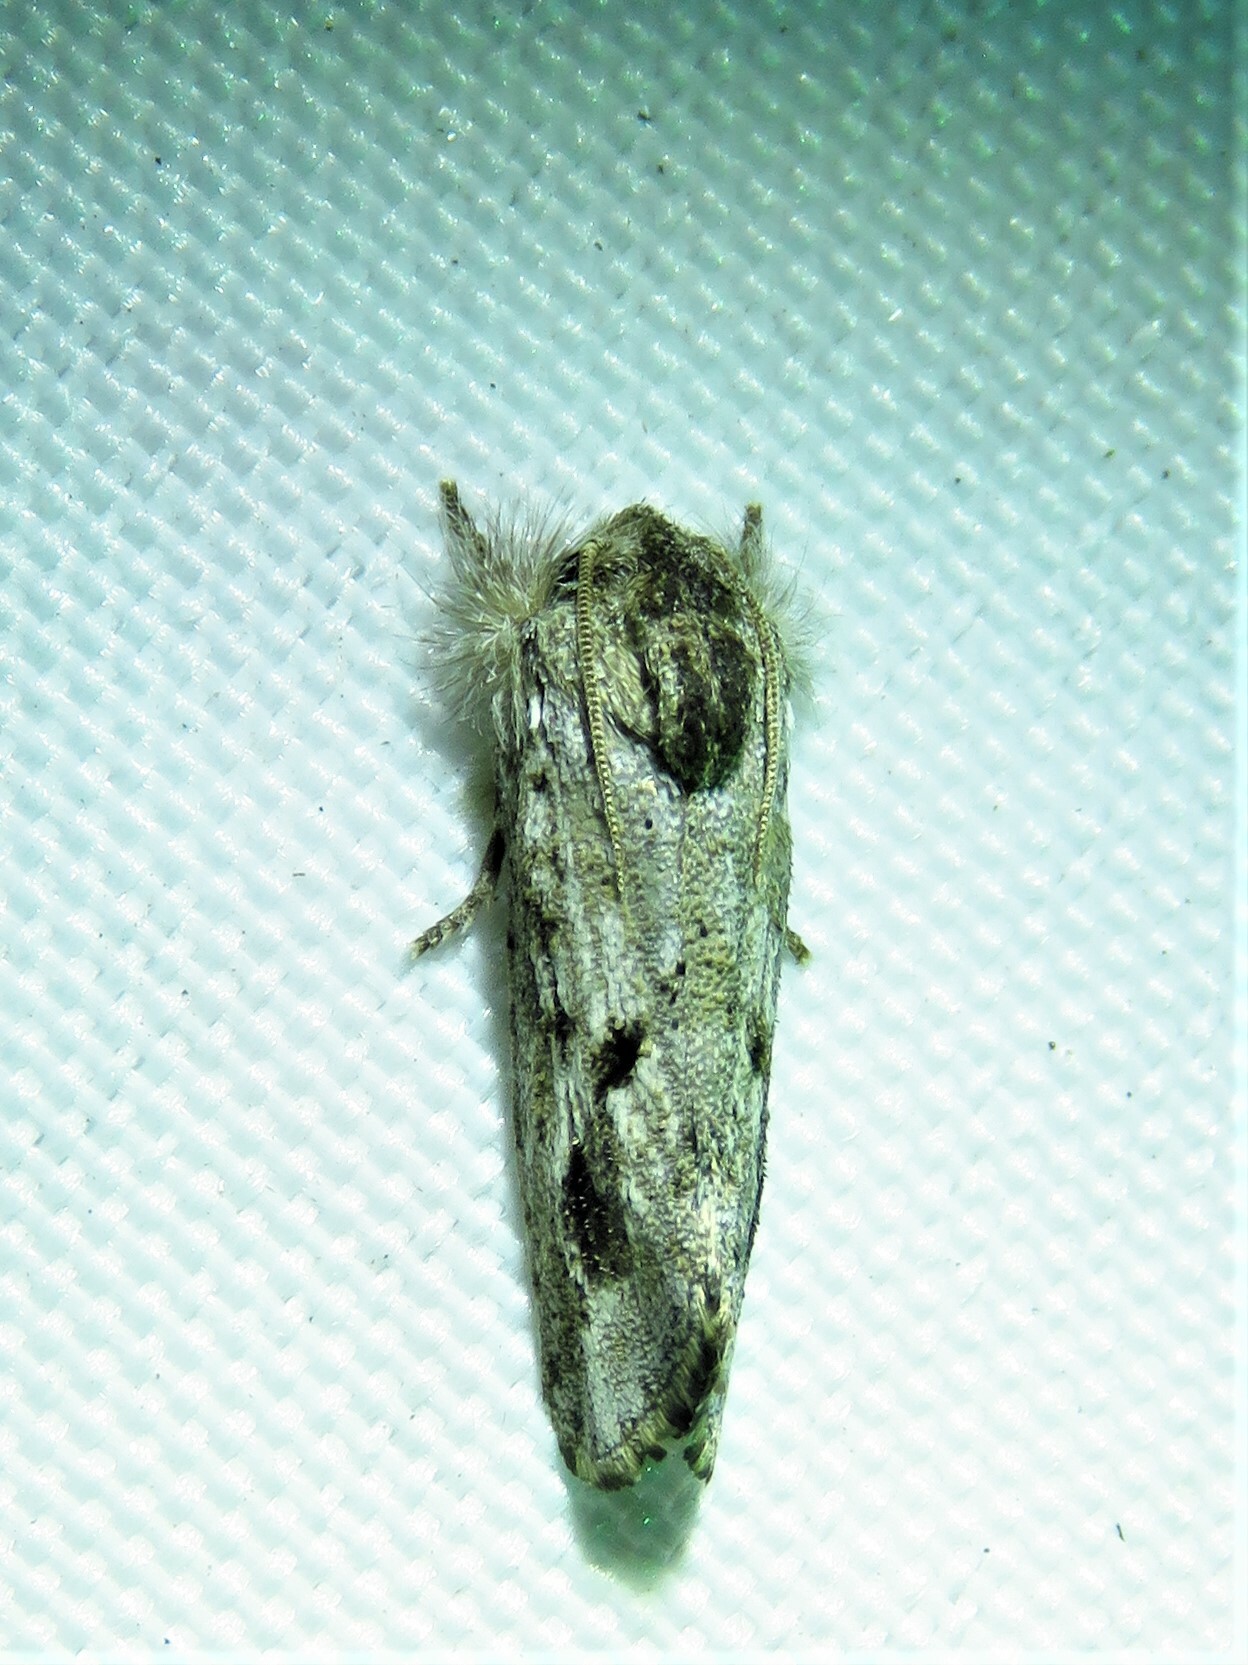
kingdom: Animalia
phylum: Arthropoda
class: Insecta
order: Lepidoptera
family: Tineidae
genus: Acrolophus
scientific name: Acrolophus griseus
